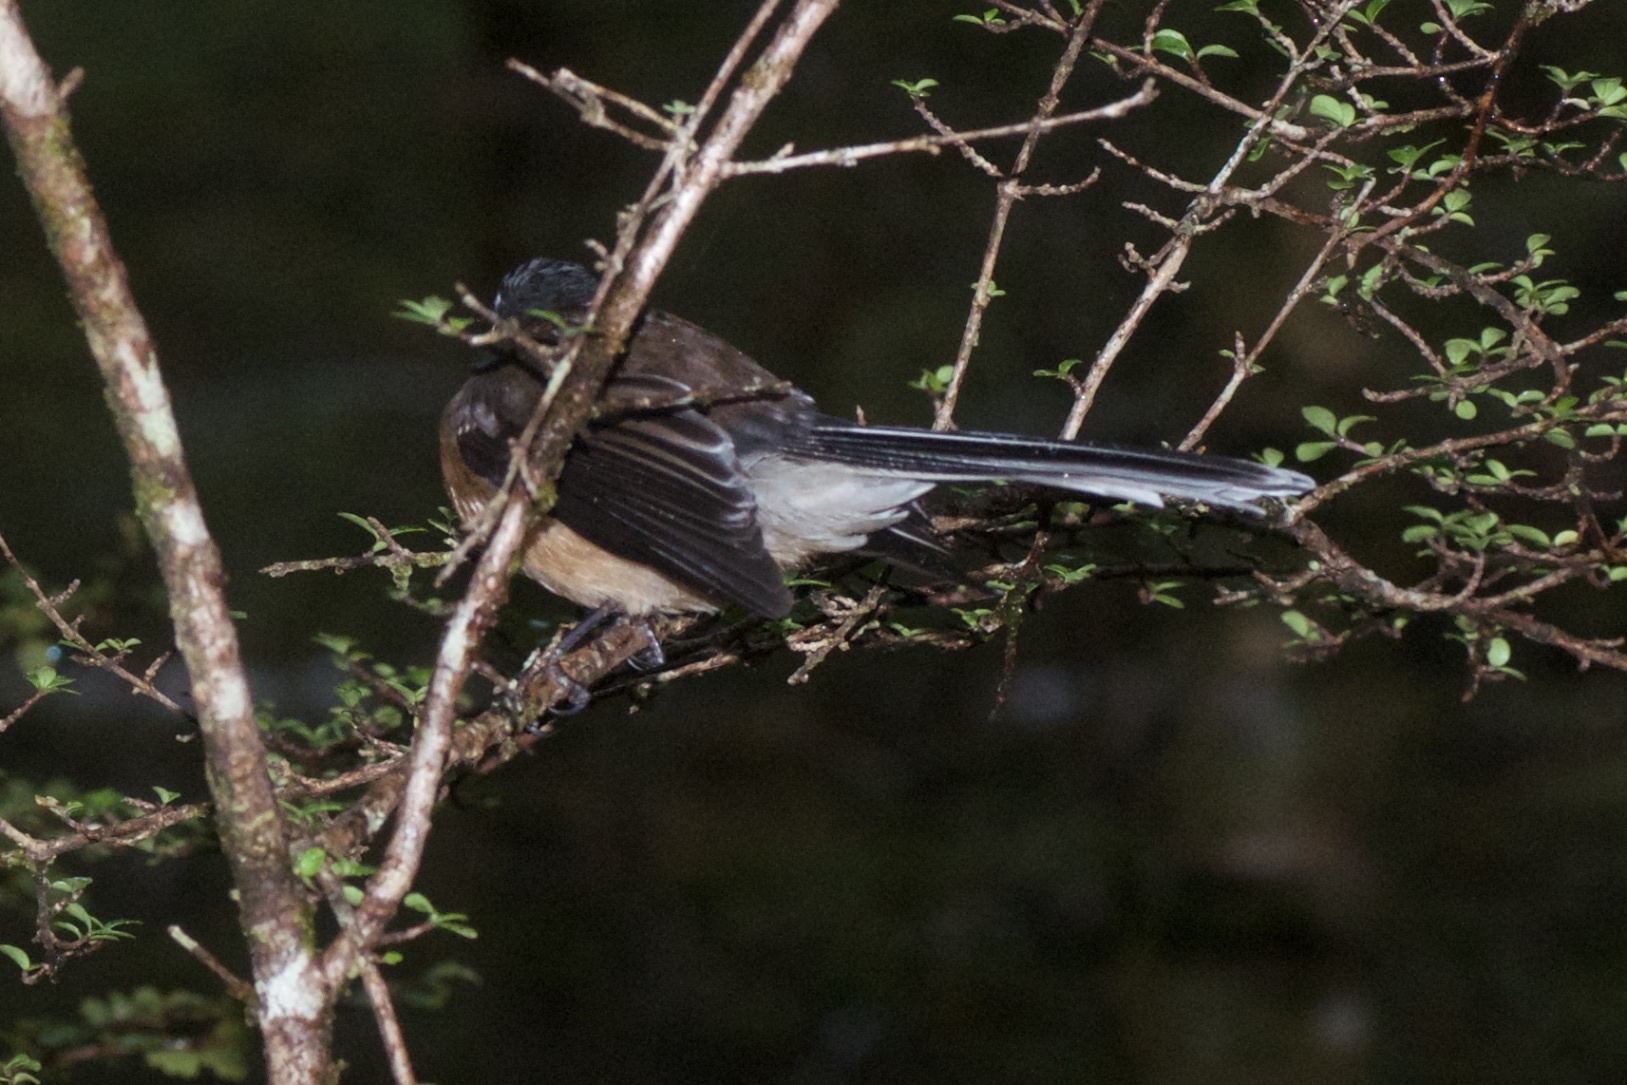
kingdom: Animalia
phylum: Chordata
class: Aves
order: Passeriformes
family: Rhipiduridae
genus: Rhipidura
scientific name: Rhipidura fuliginosa
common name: New zealand fantail
